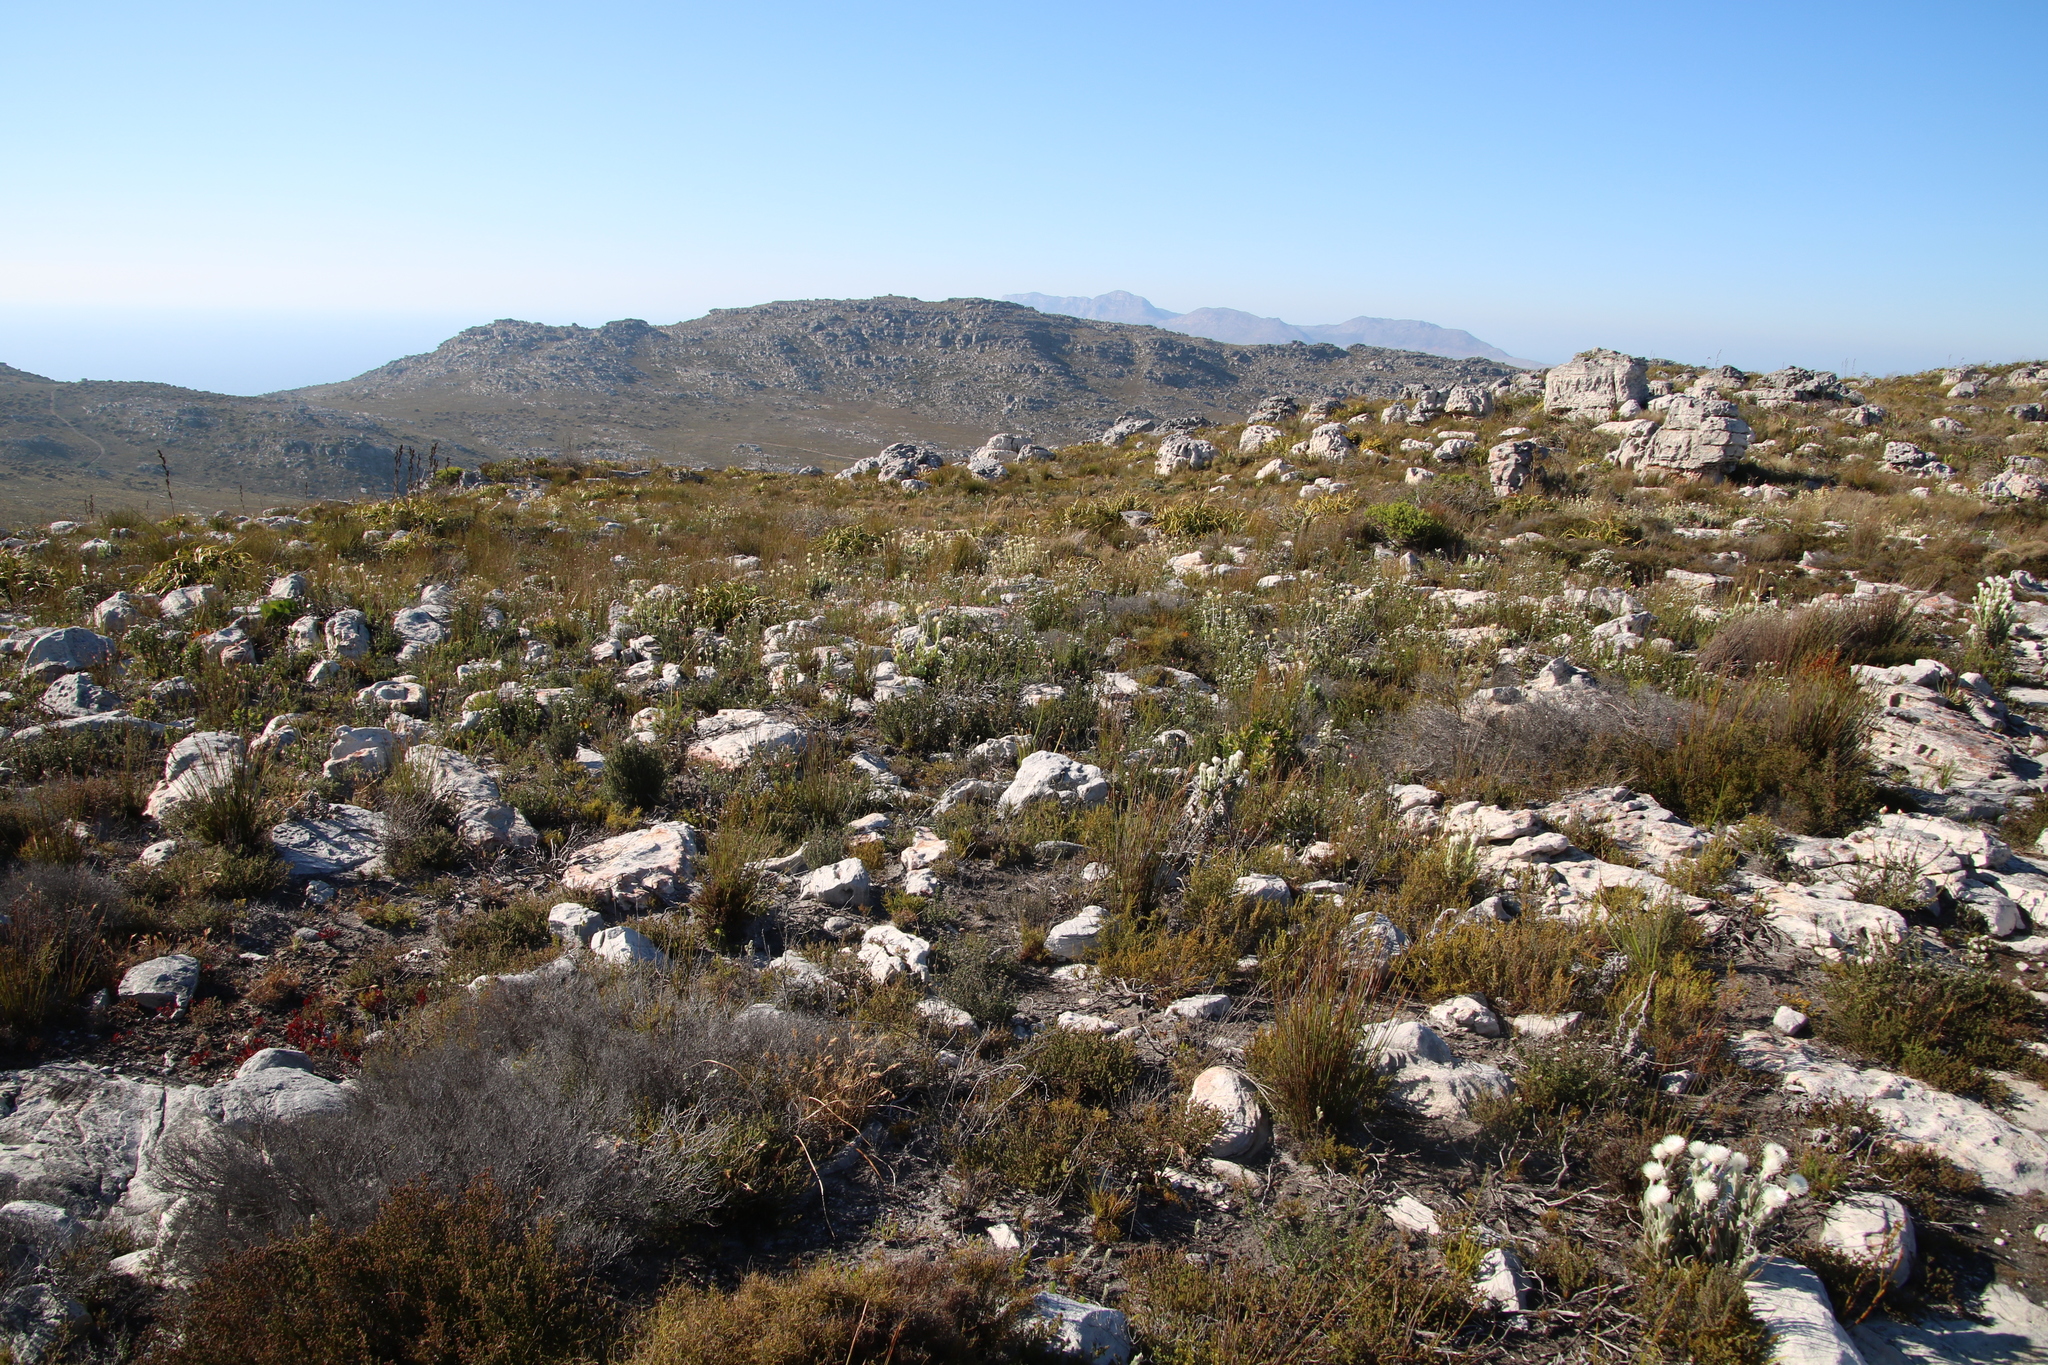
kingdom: Plantae
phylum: Tracheophyta
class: Magnoliopsida
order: Asterales
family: Asteraceae
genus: Syncarpha
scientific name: Syncarpha speciosissima
